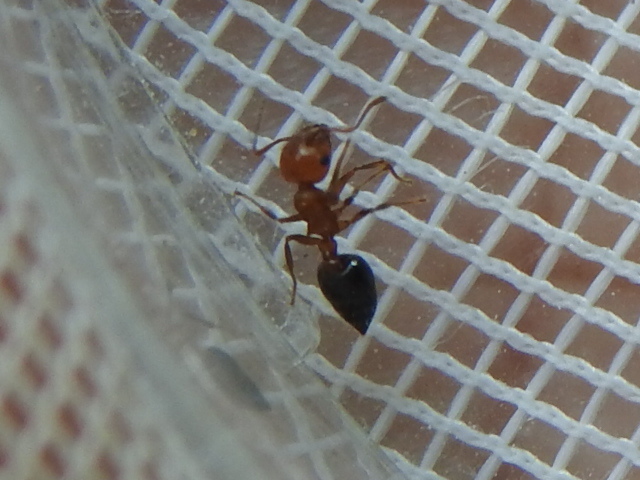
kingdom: Animalia
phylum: Arthropoda
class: Insecta
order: Hymenoptera
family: Formicidae
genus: Crematogaster
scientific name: Crematogaster laeviuscula
